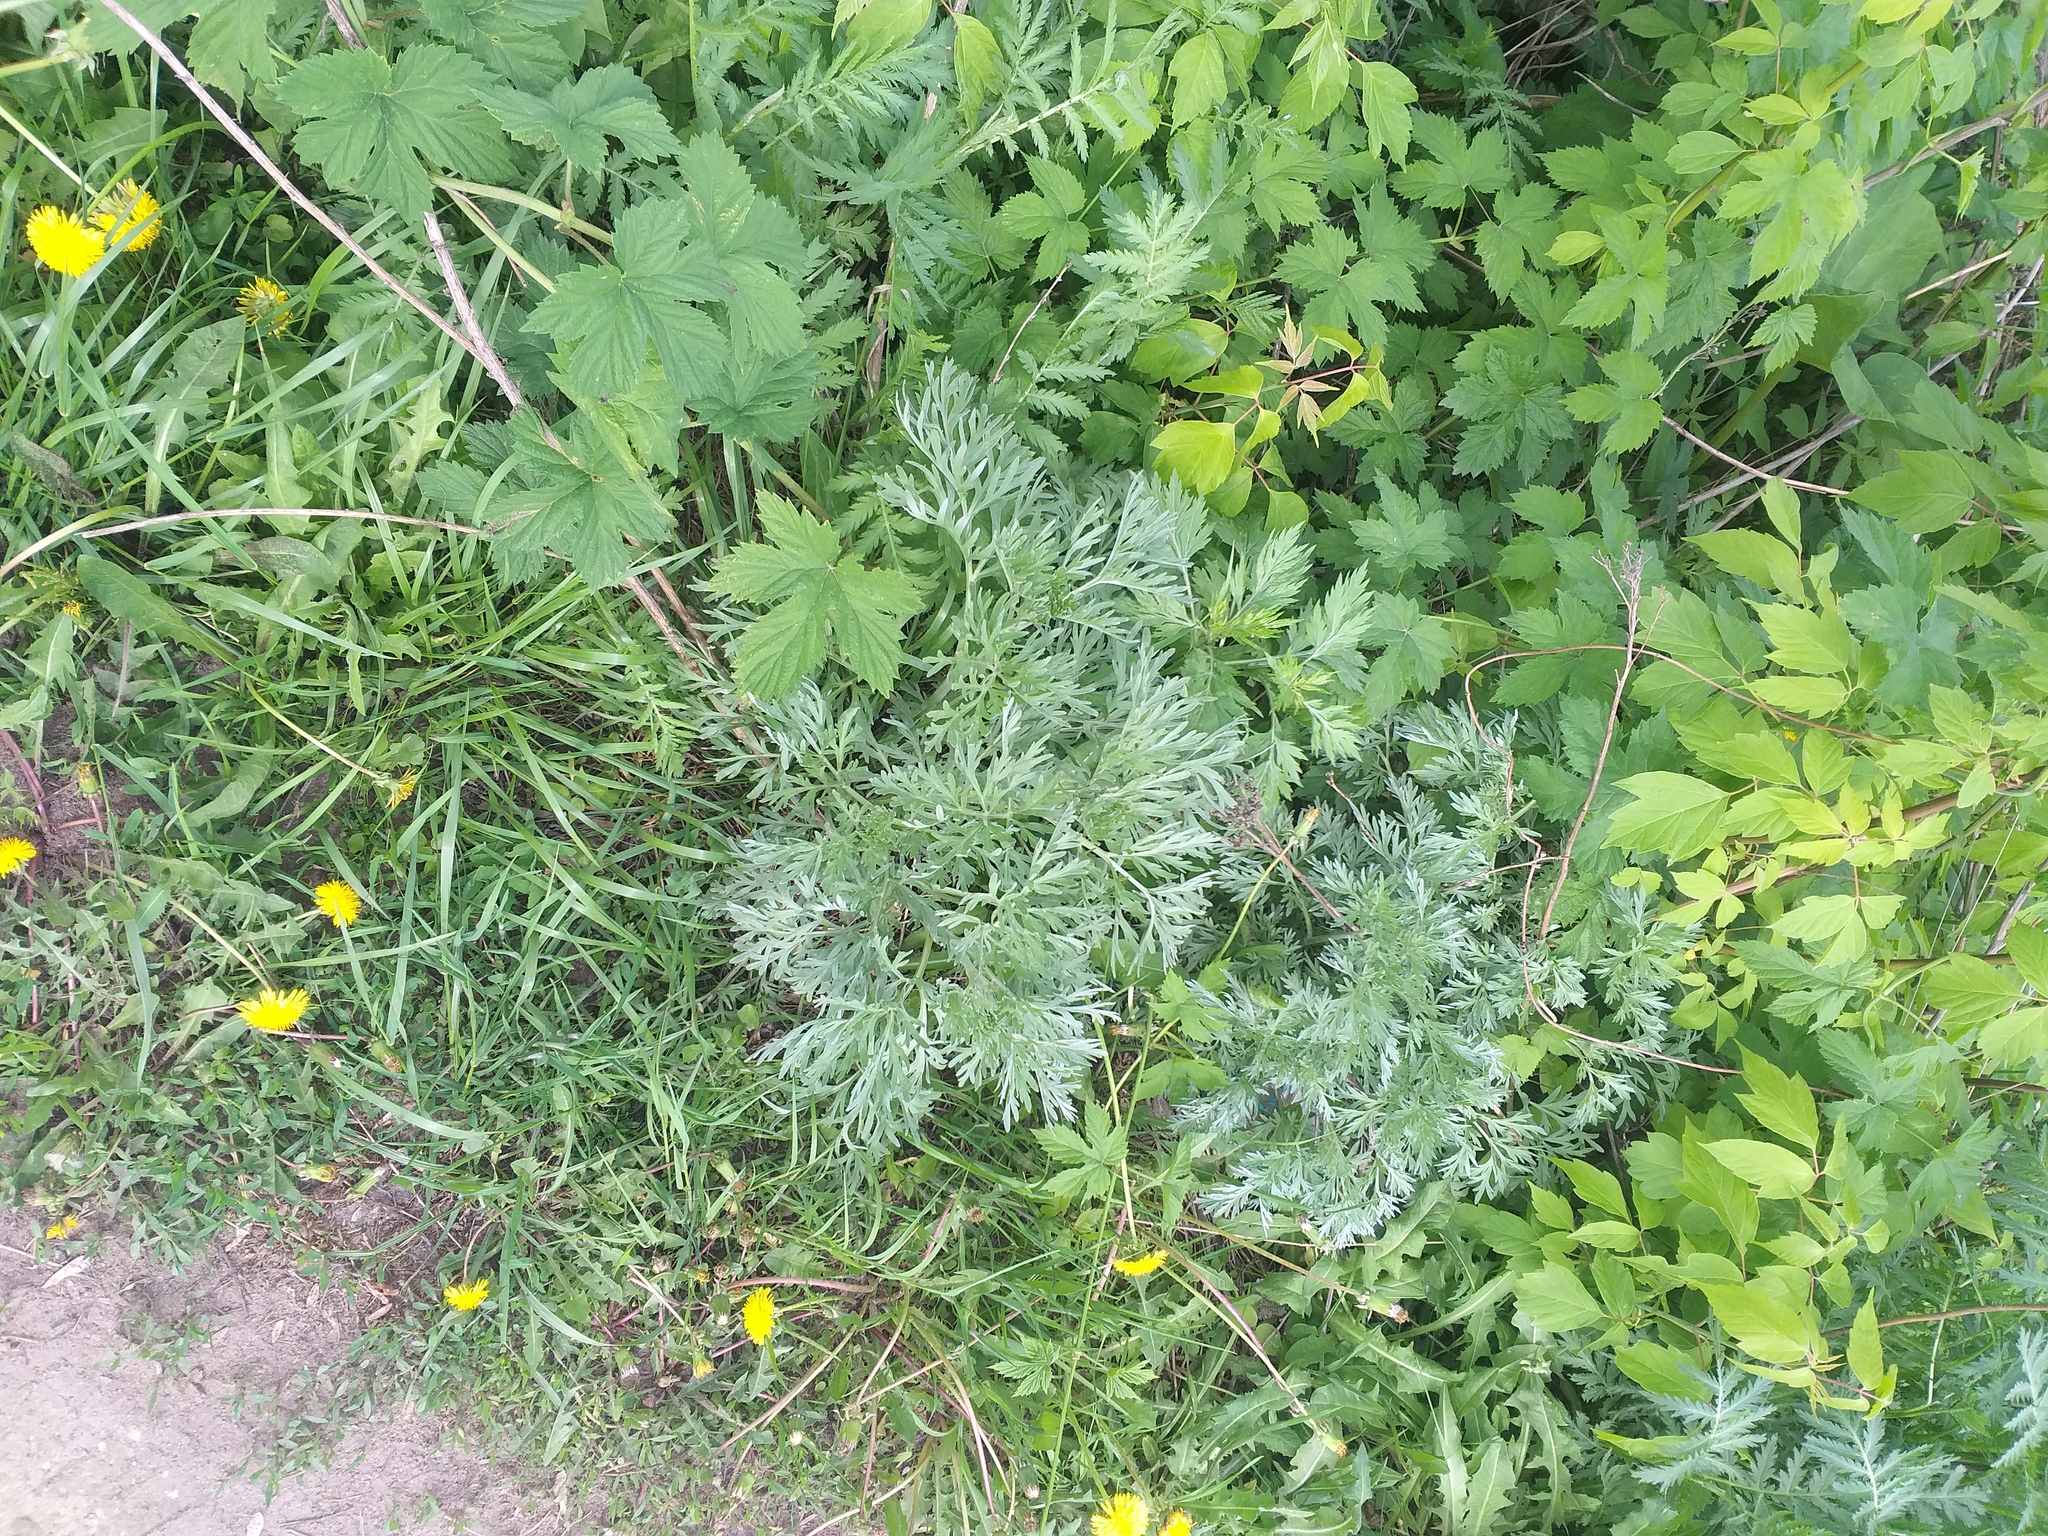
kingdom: Plantae
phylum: Tracheophyta
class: Magnoliopsida
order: Asterales
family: Asteraceae
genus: Artemisia
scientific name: Artemisia absinthium
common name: Wormwood
